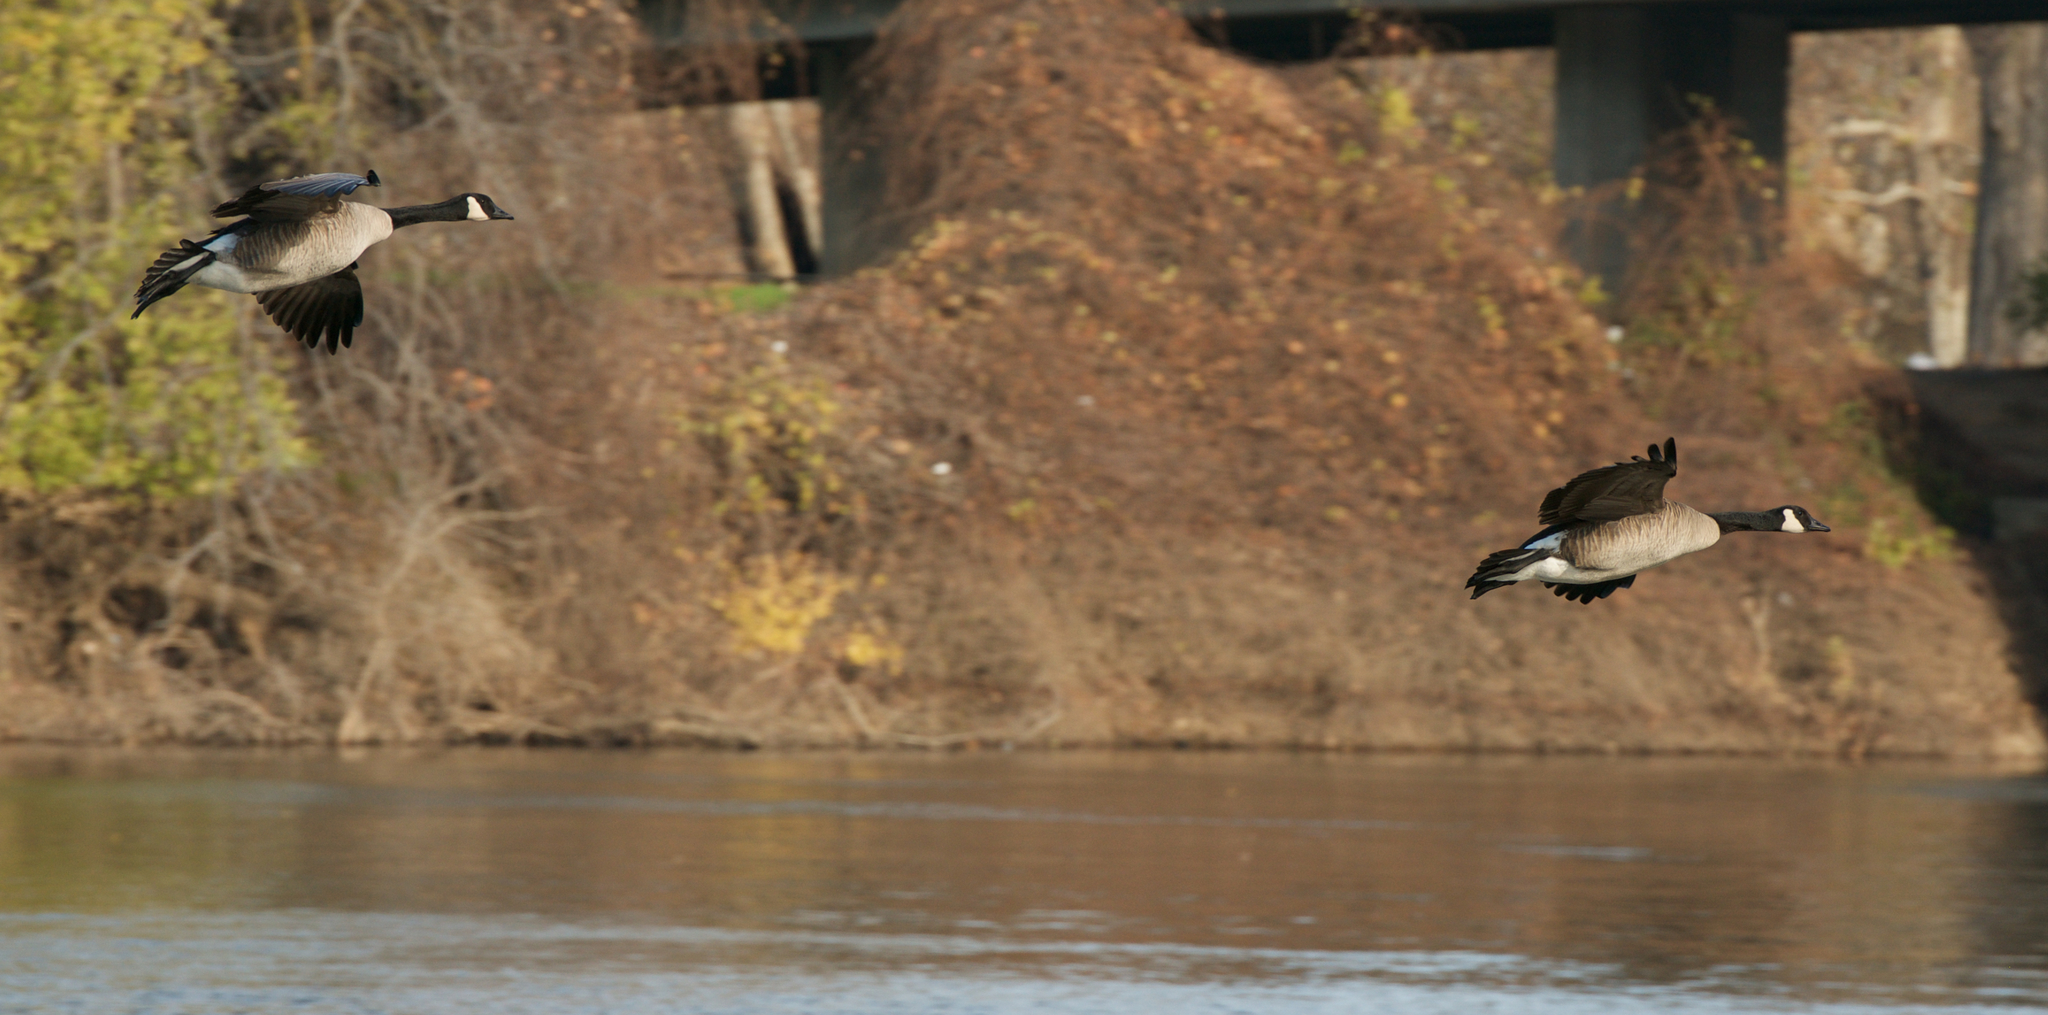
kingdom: Animalia
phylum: Chordata
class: Aves
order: Anseriformes
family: Anatidae
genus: Branta
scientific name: Branta canadensis
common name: Canada goose
